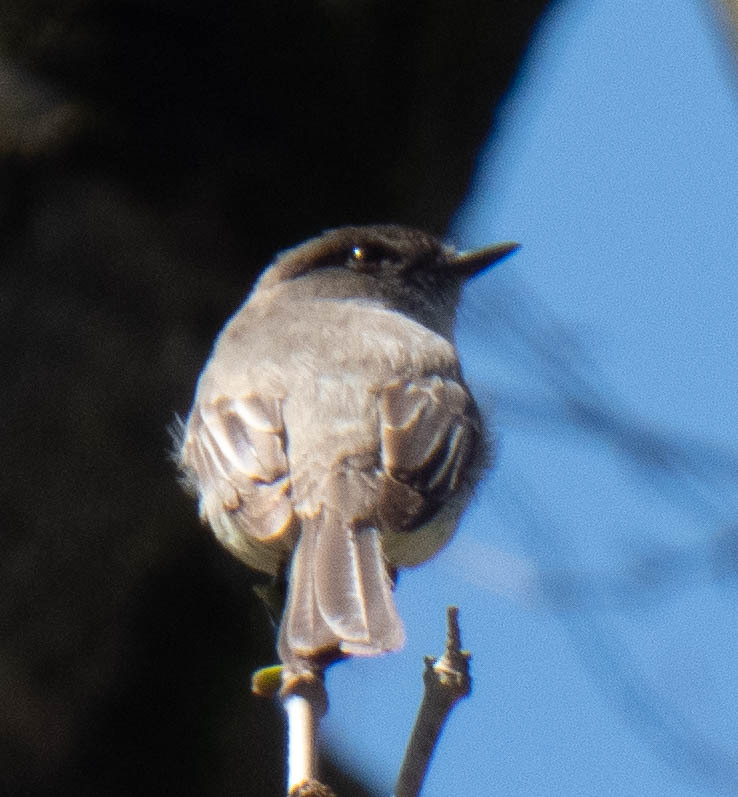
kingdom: Animalia
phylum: Chordata
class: Aves
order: Passeriformes
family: Tyrannidae
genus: Sayornis
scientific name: Sayornis phoebe
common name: Eastern phoebe
